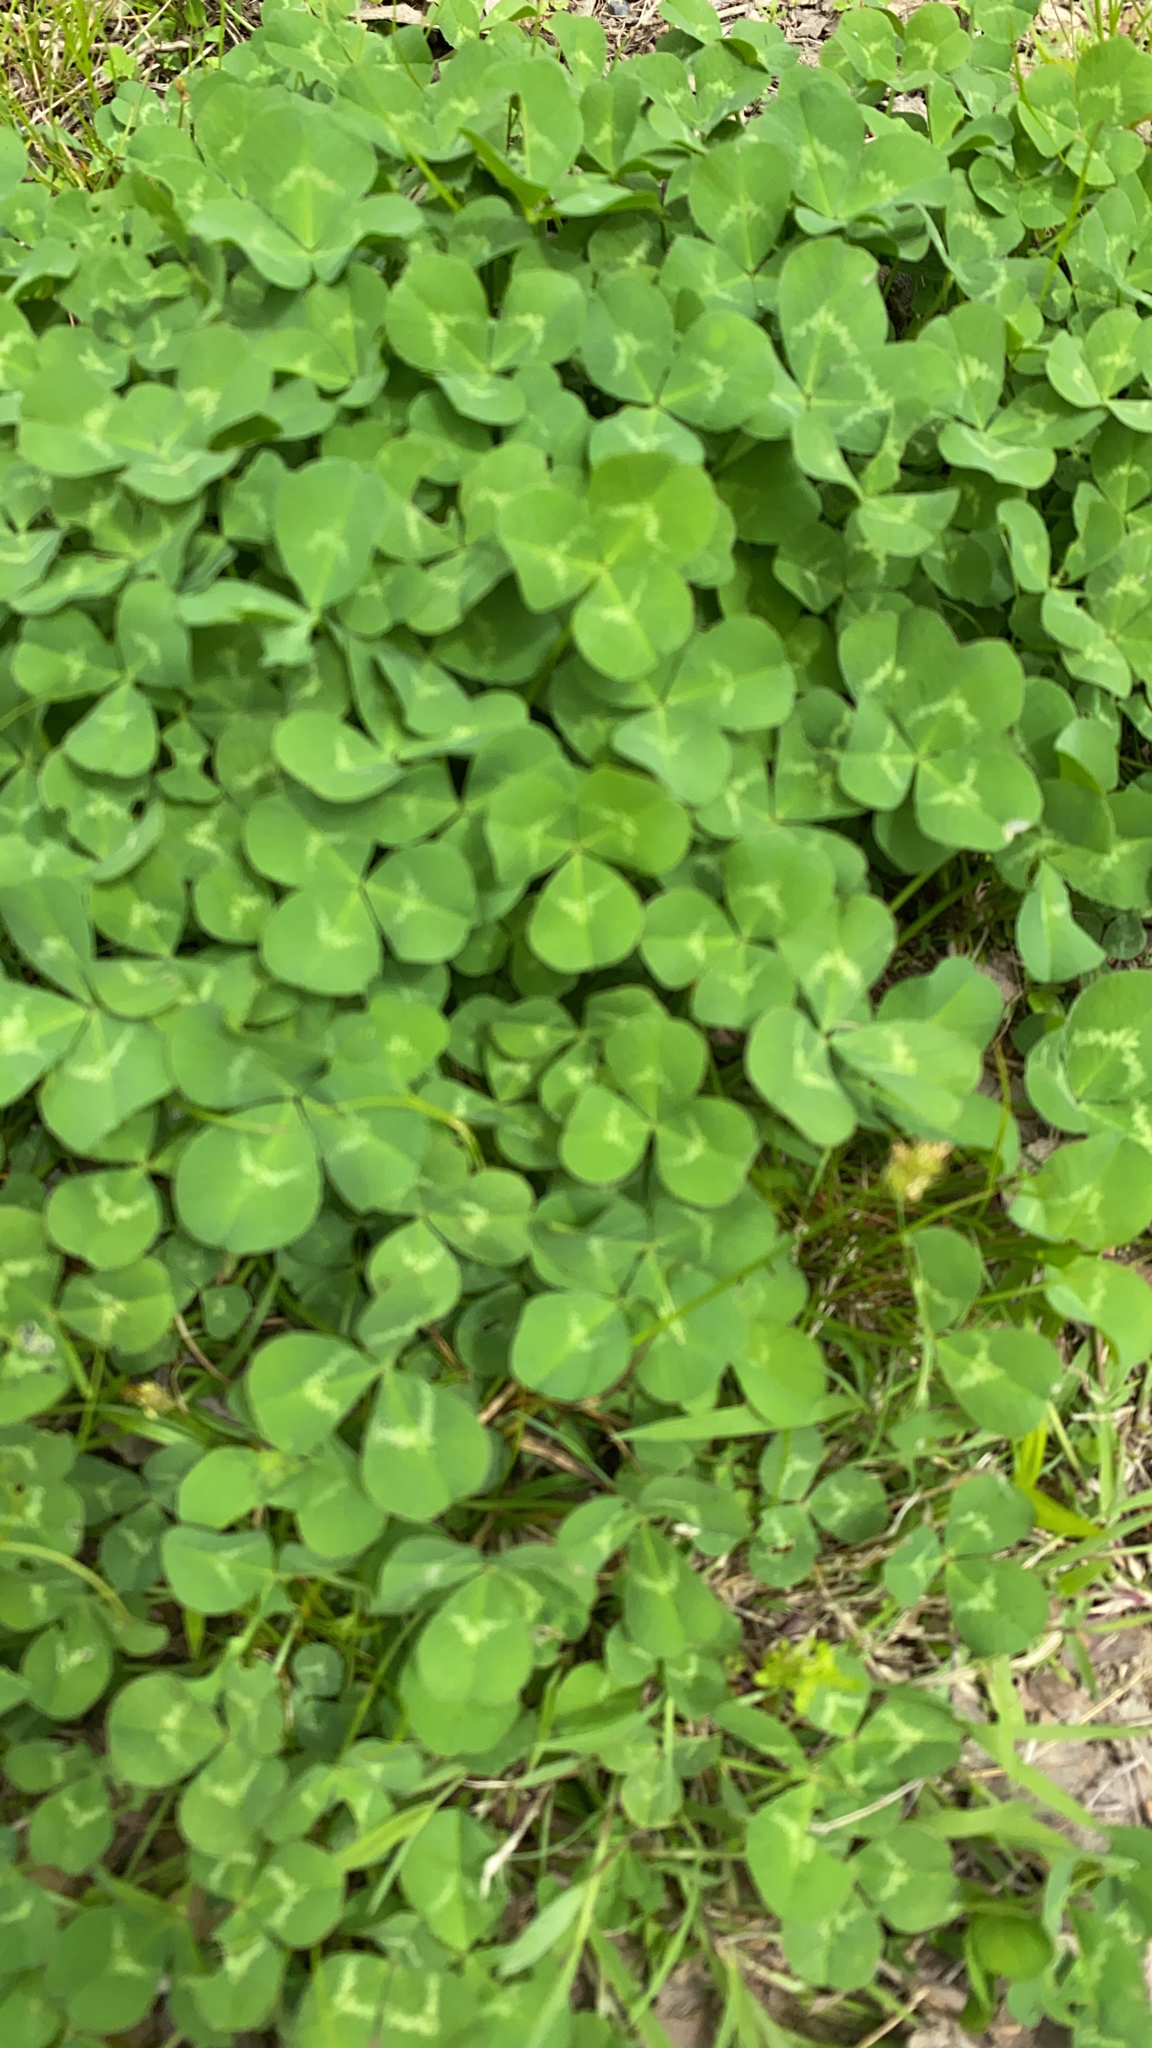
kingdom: Plantae
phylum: Tracheophyta
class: Magnoliopsida
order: Fabales
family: Fabaceae
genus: Trifolium
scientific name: Trifolium repens
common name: White clover
